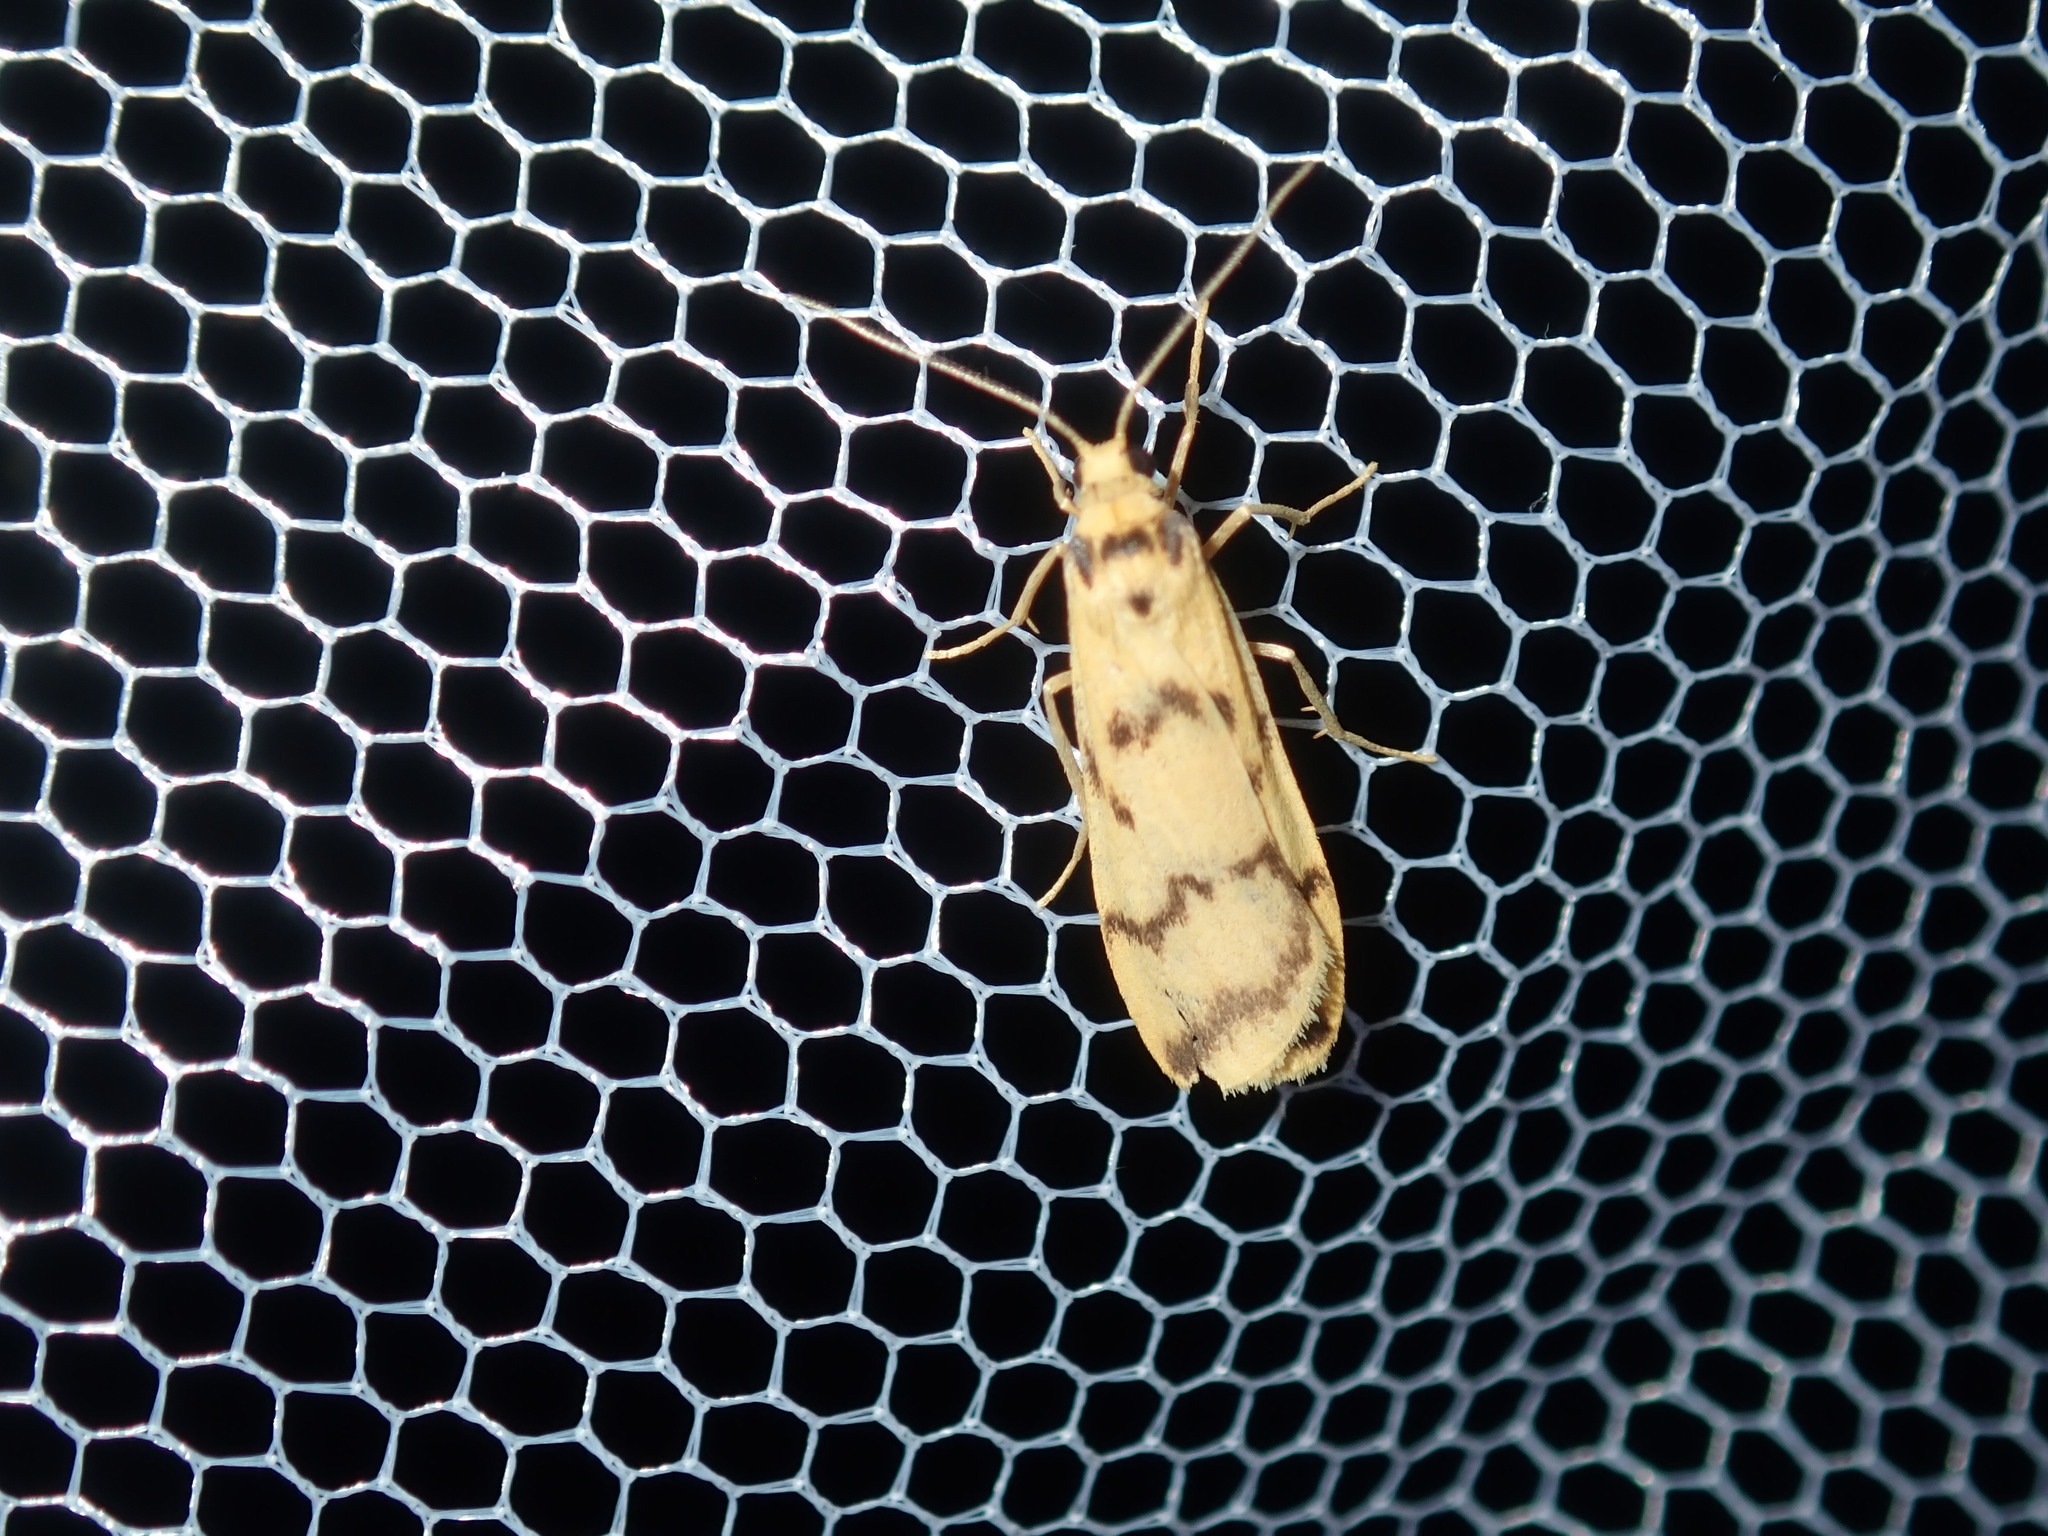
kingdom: Animalia
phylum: Arthropoda
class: Insecta
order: Lepidoptera
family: Erebidae
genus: Tigrioides
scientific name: Tigrioides alterna
